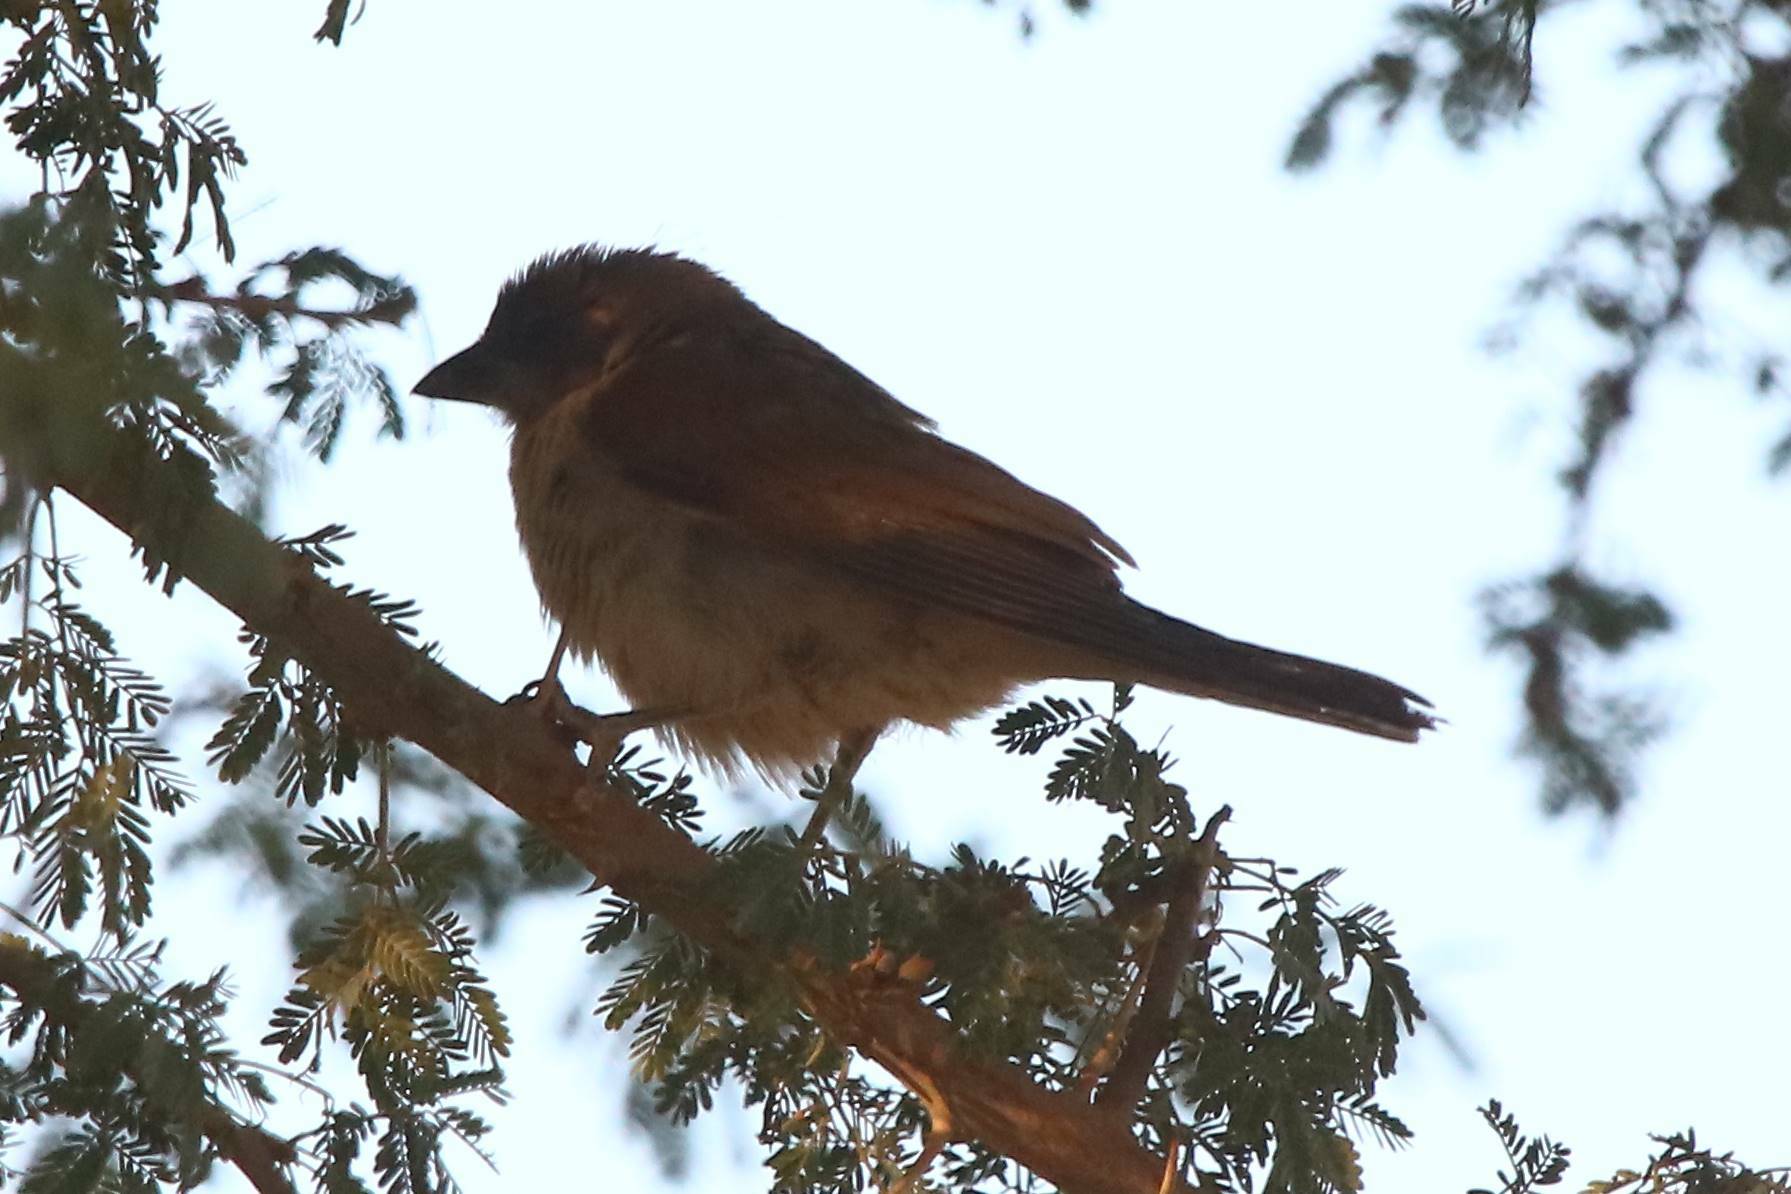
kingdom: Animalia
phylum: Chordata
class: Aves
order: Passeriformes
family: Passeridae
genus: Passer
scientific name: Passer griseus
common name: Northern grey-headed sparrow
